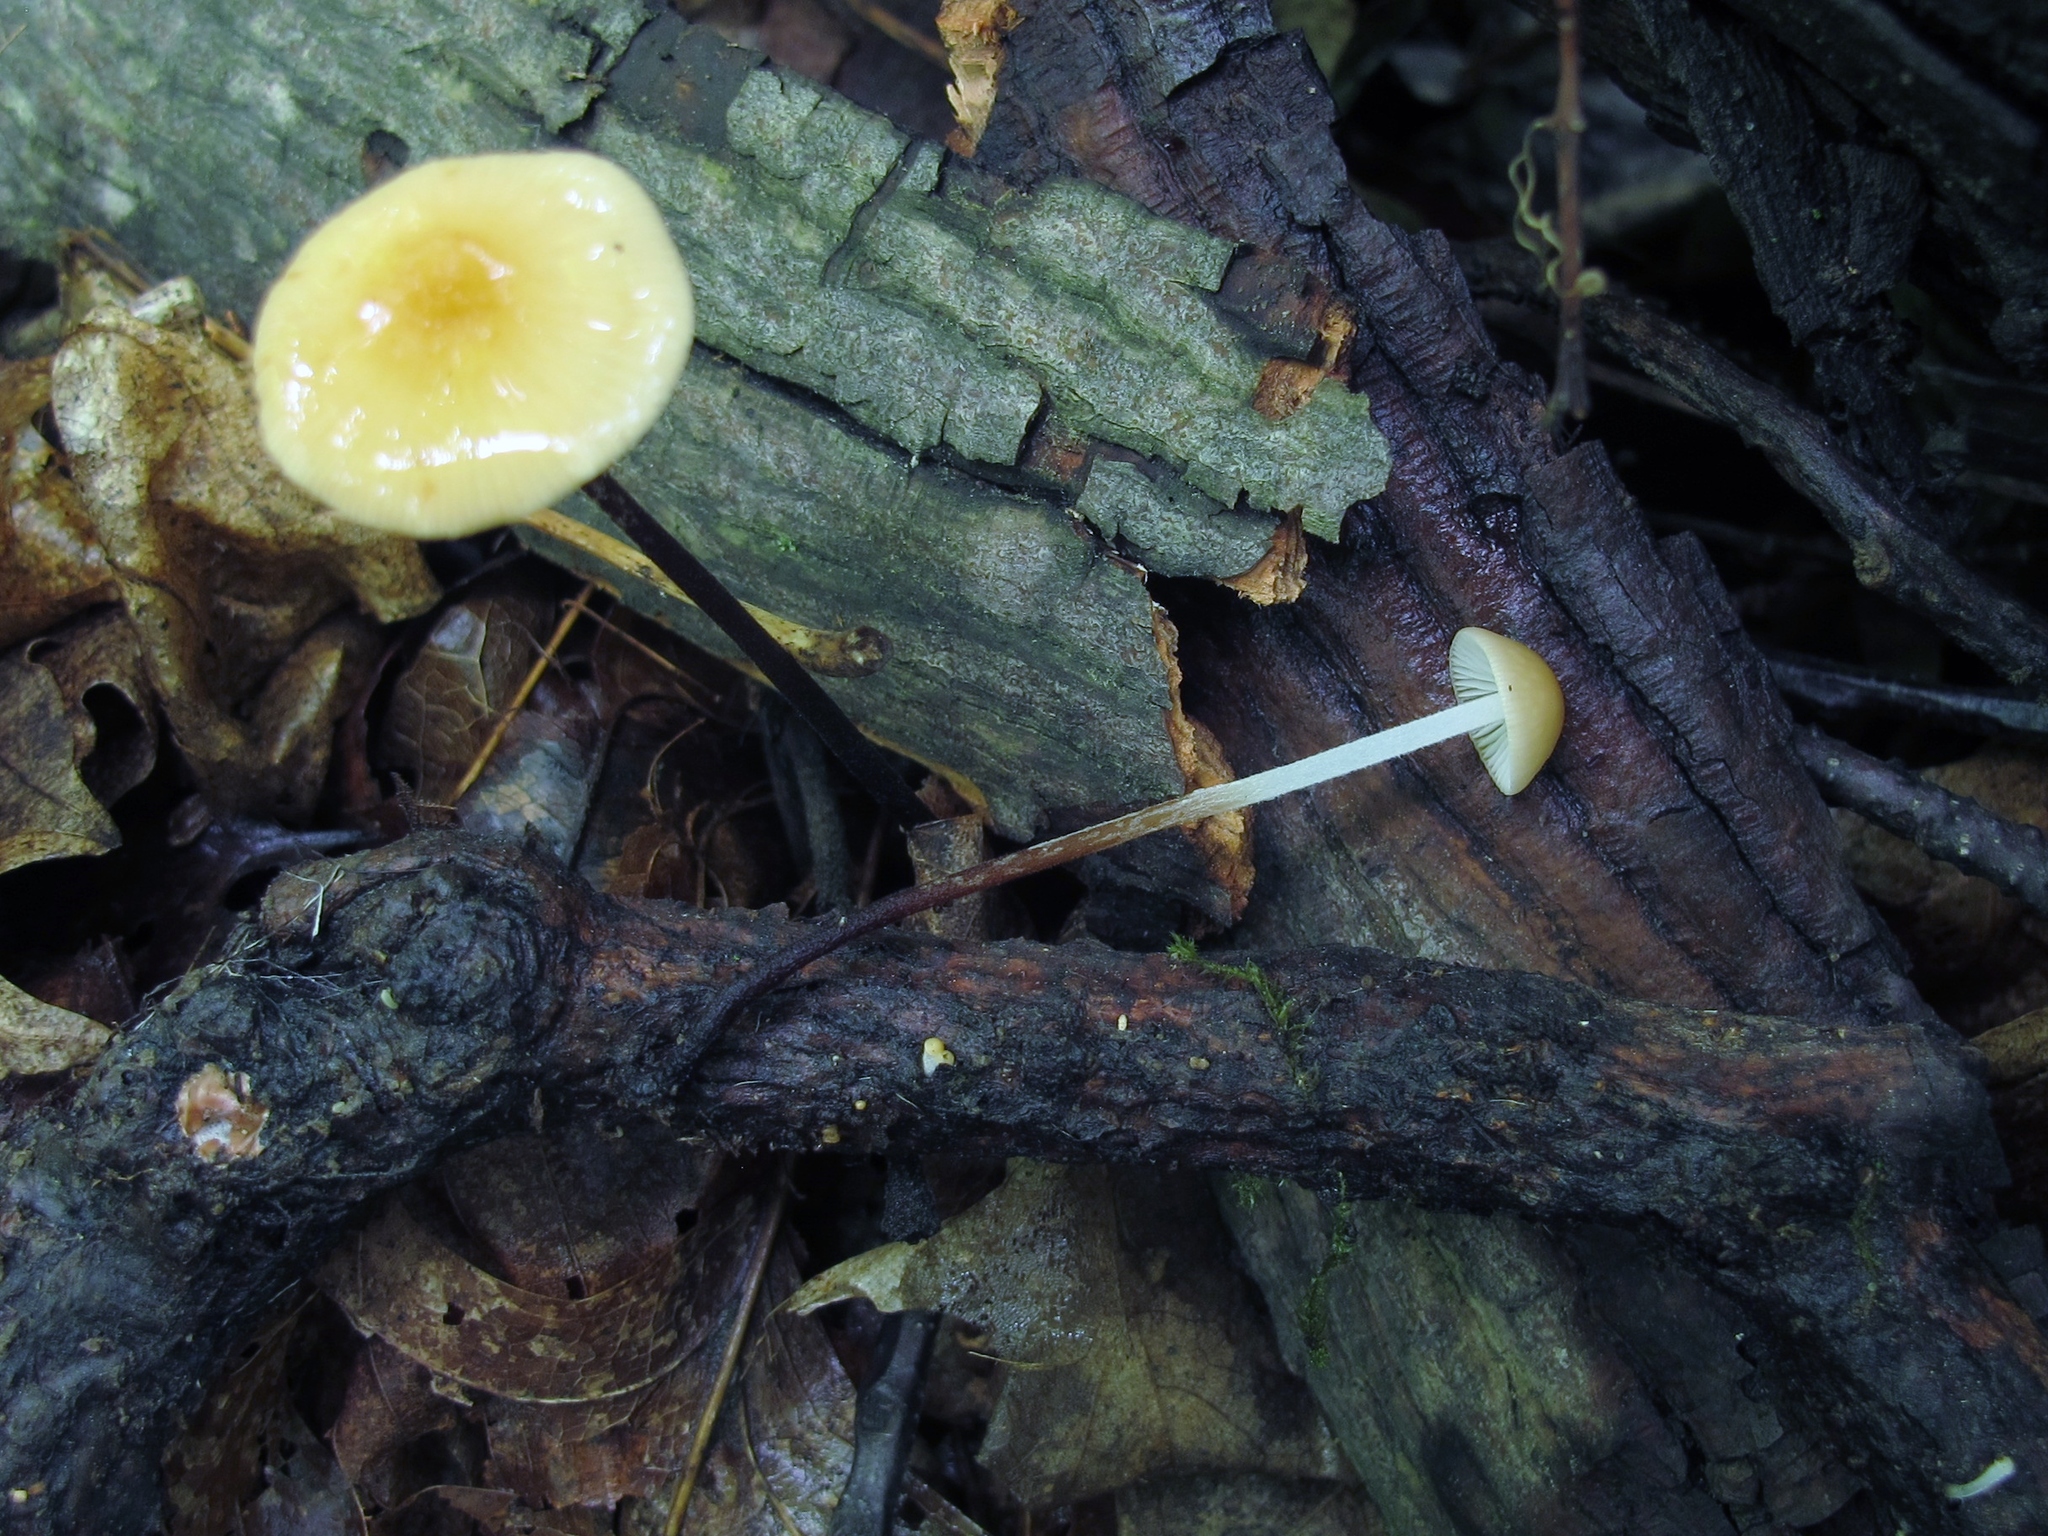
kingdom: Fungi
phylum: Basidiomycota
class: Agaricomycetes
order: Agaricales
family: Physalacriaceae
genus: Rhizomarasmius
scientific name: Rhizomarasmius pyrrhocephalus
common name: Hairy long stem marasmius
